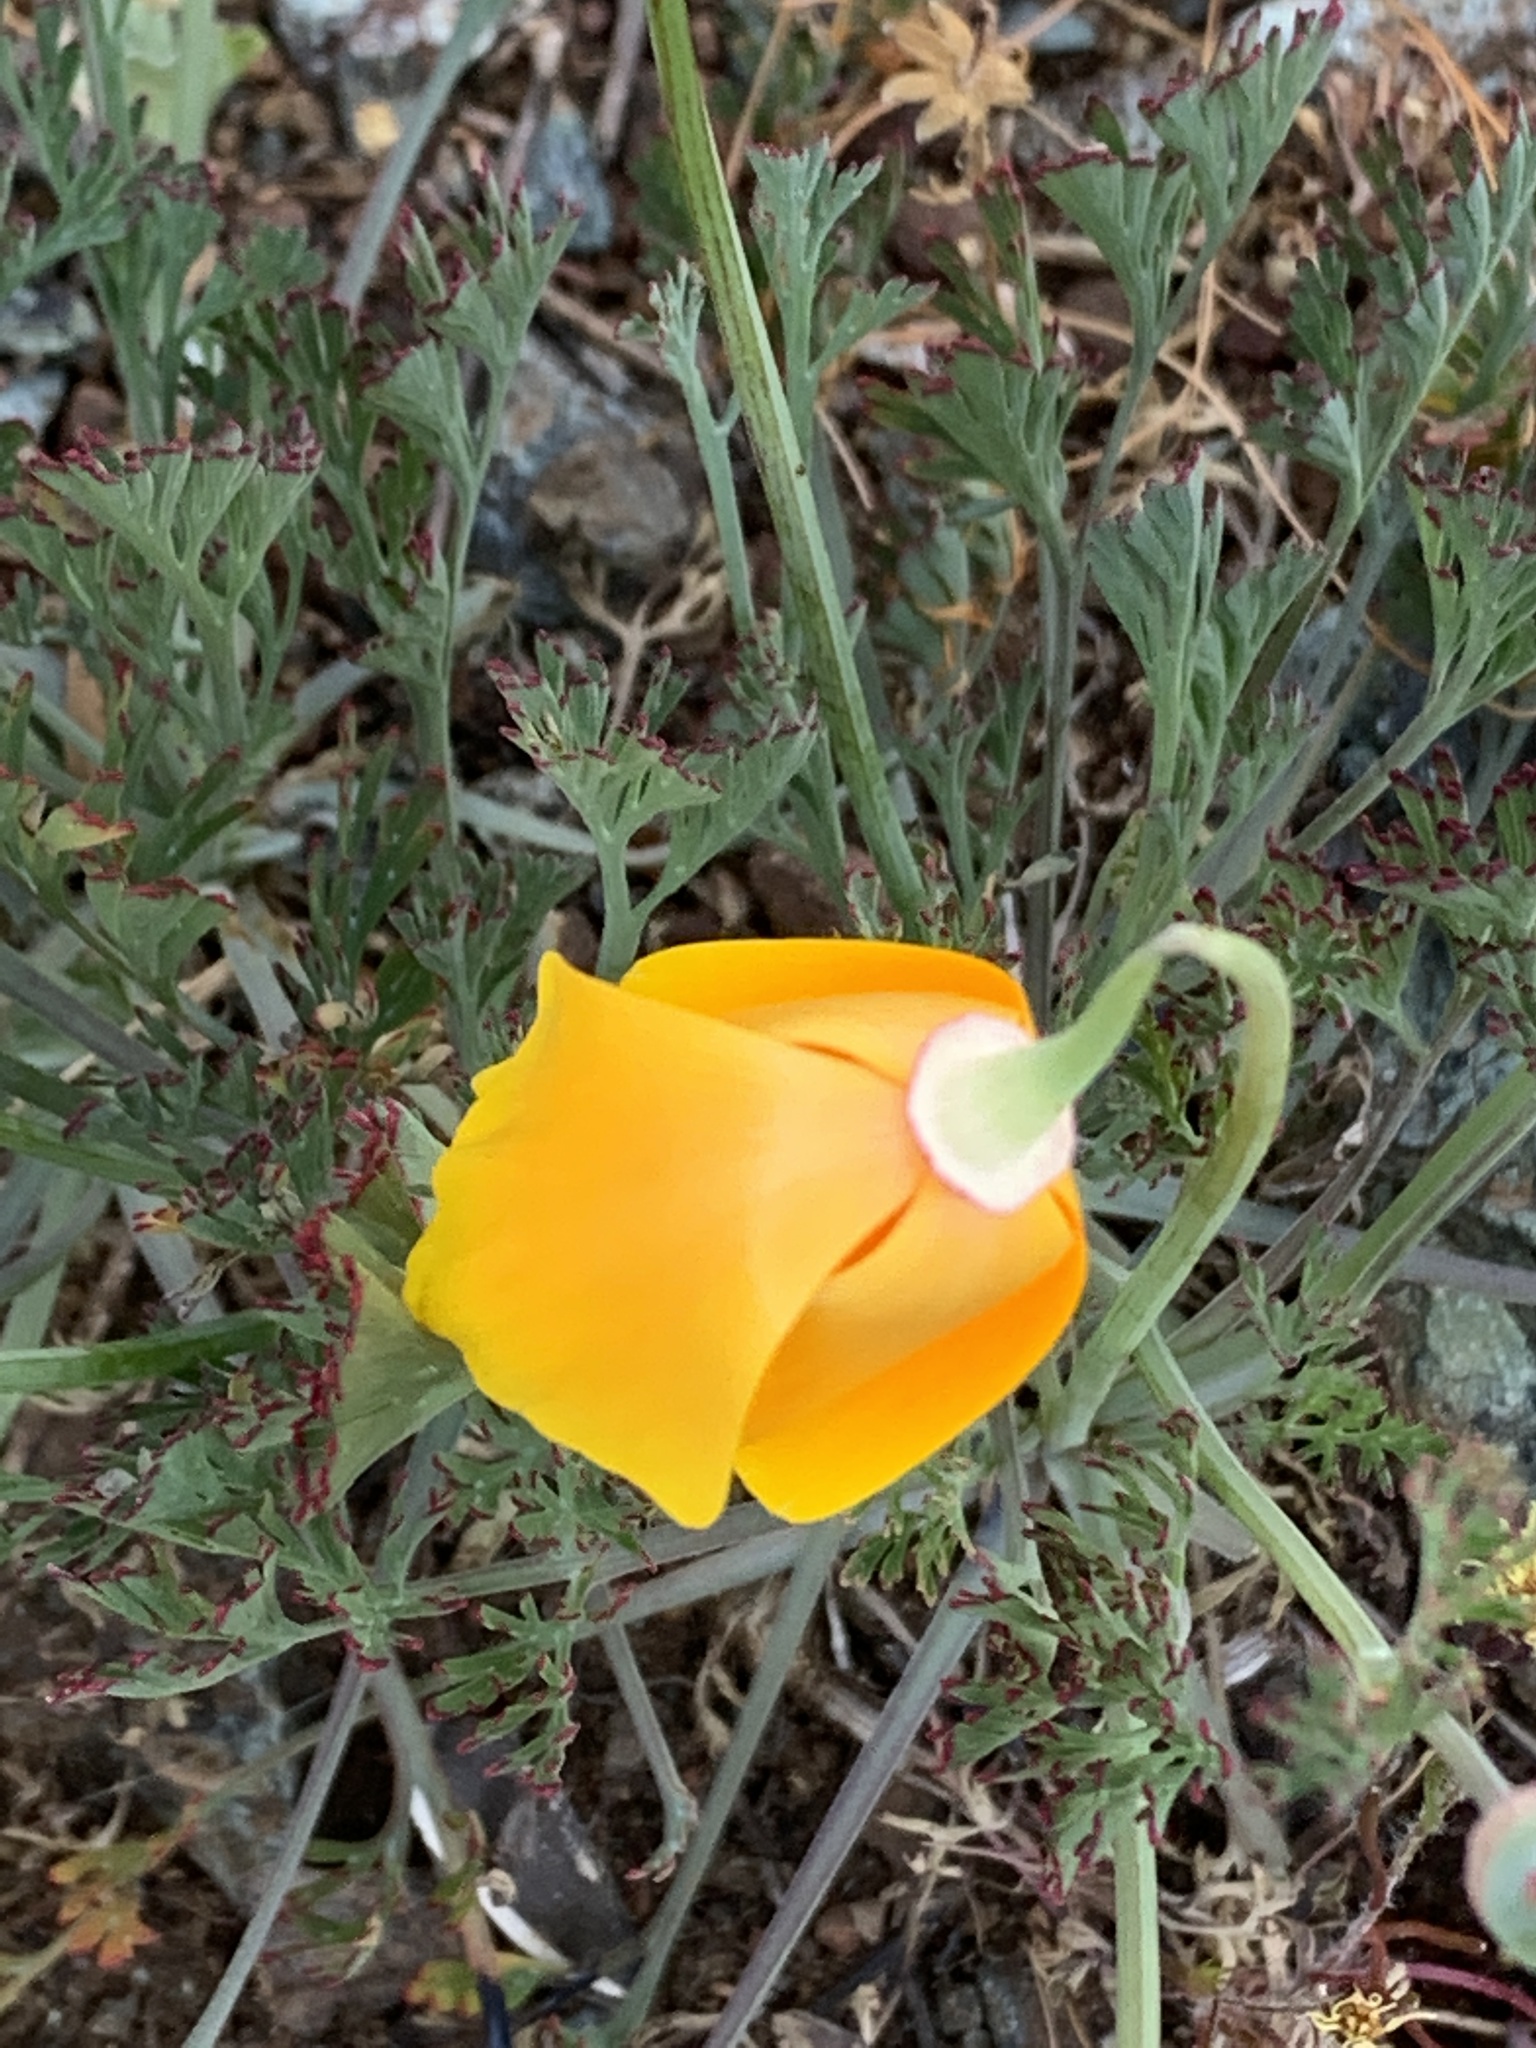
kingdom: Plantae
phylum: Tracheophyta
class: Magnoliopsida
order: Ranunculales
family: Papaveraceae
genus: Eschscholzia
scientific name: Eschscholzia californica
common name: California poppy
